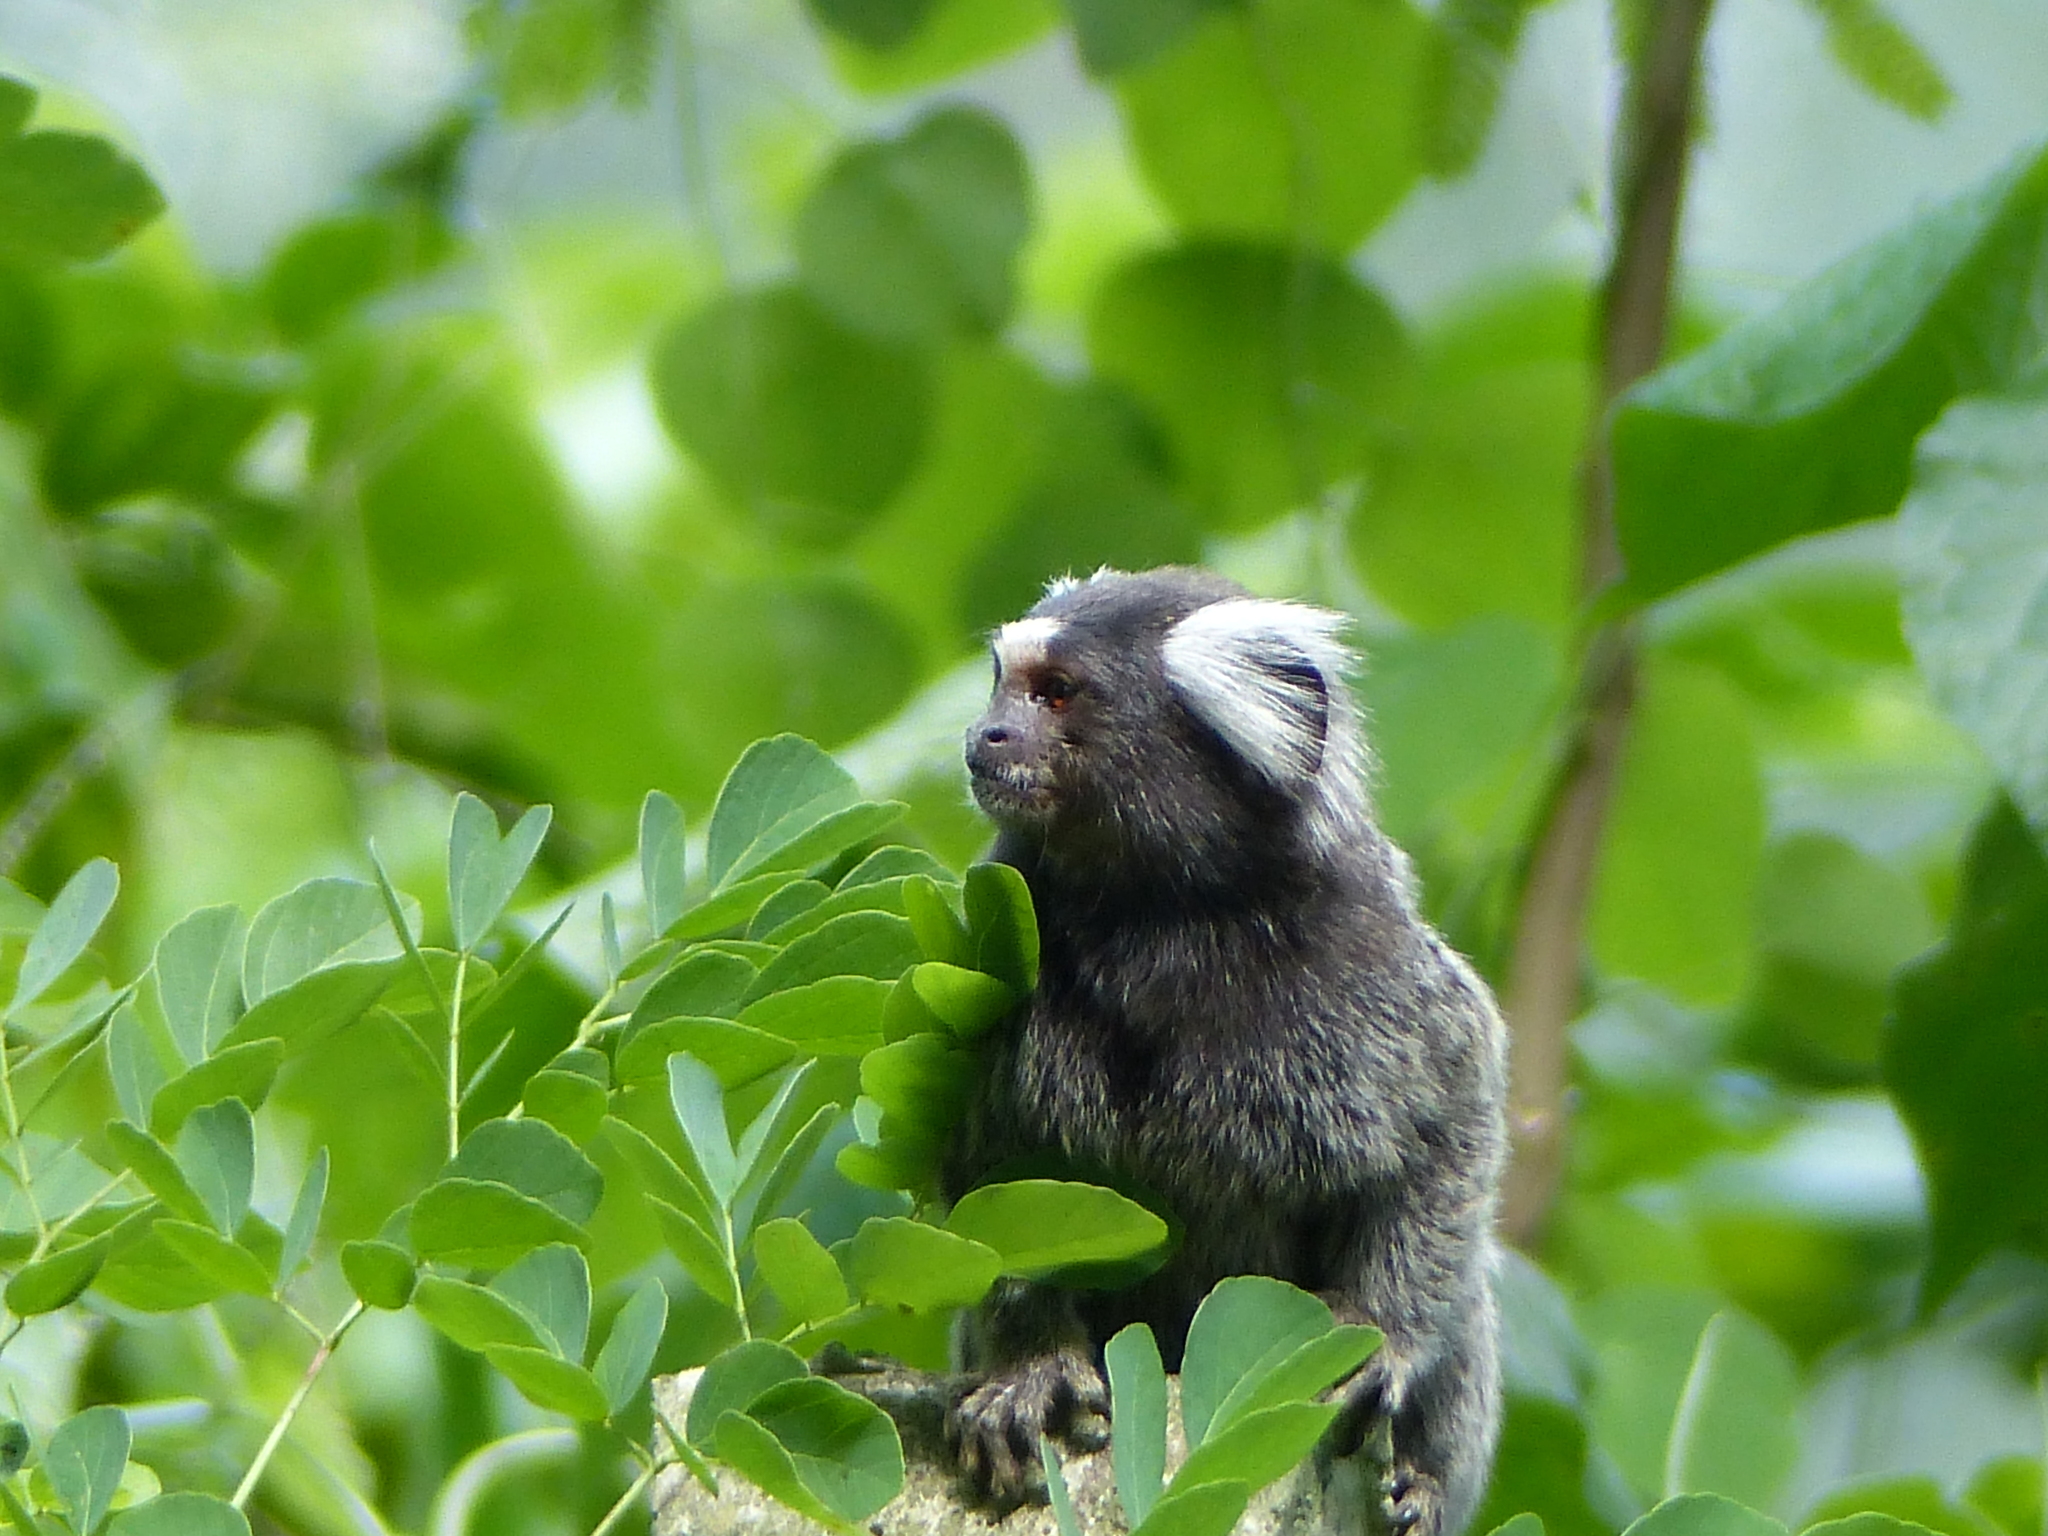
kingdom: Animalia
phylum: Chordata
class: Mammalia
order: Primates
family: Callitrichidae
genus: Callithrix
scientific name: Callithrix jacchus
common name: Common marmoset
